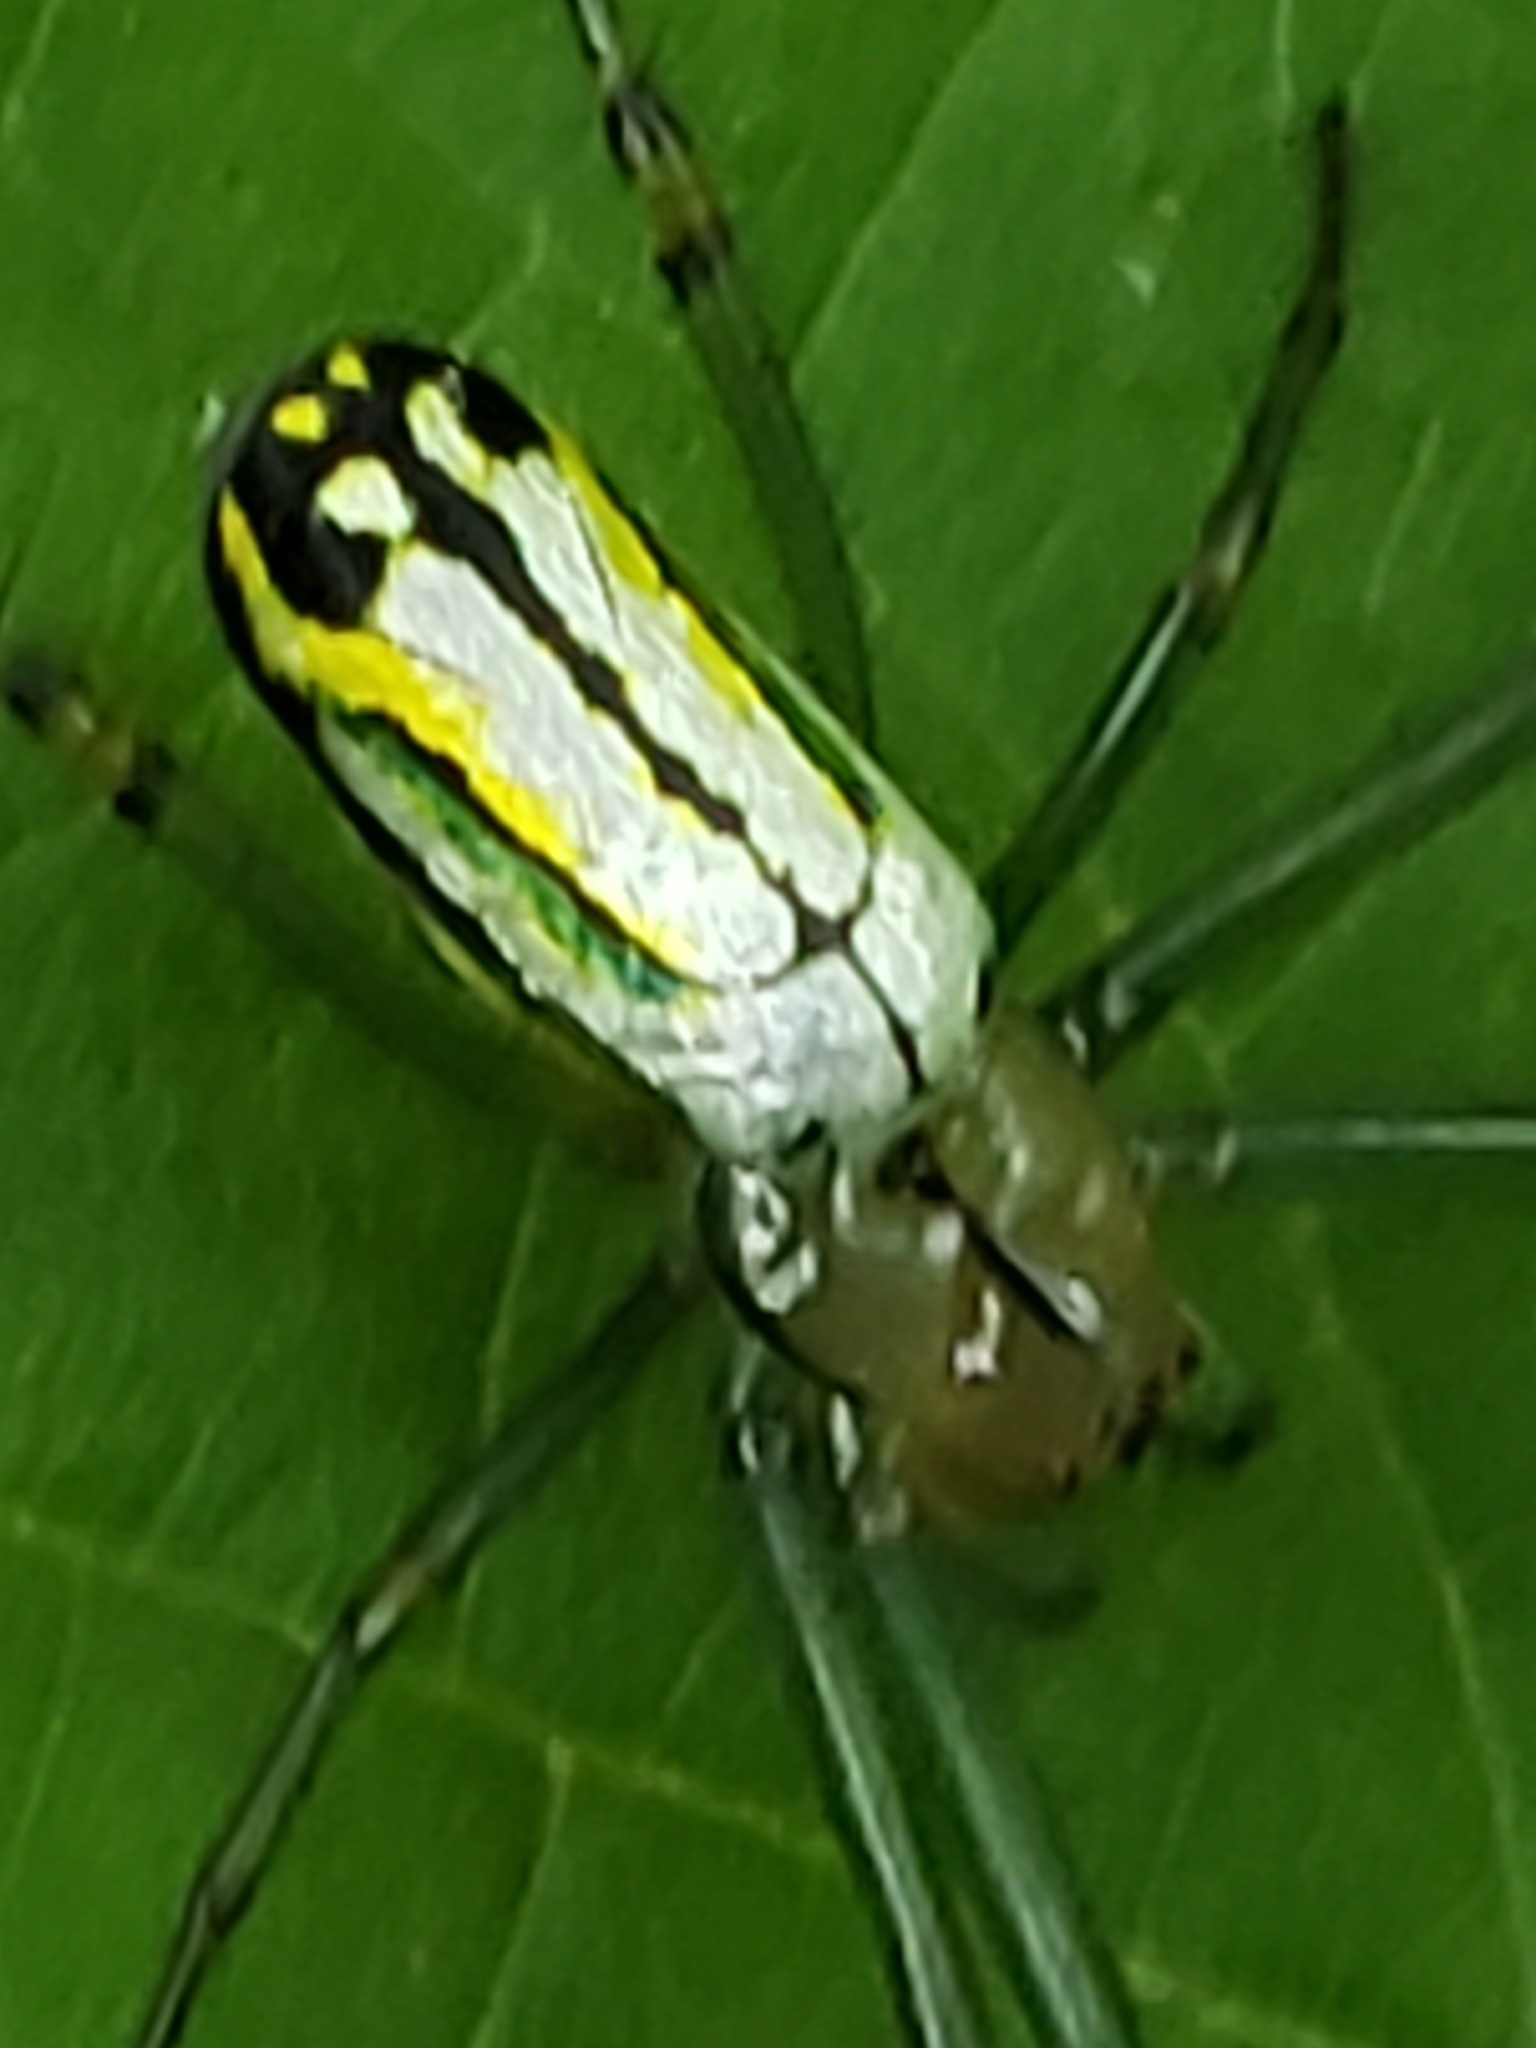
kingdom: Animalia
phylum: Arthropoda
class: Arachnida
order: Araneae
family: Tetragnathidae
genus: Leucauge
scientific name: Leucauge venusta
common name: Longjawed orb weavers
